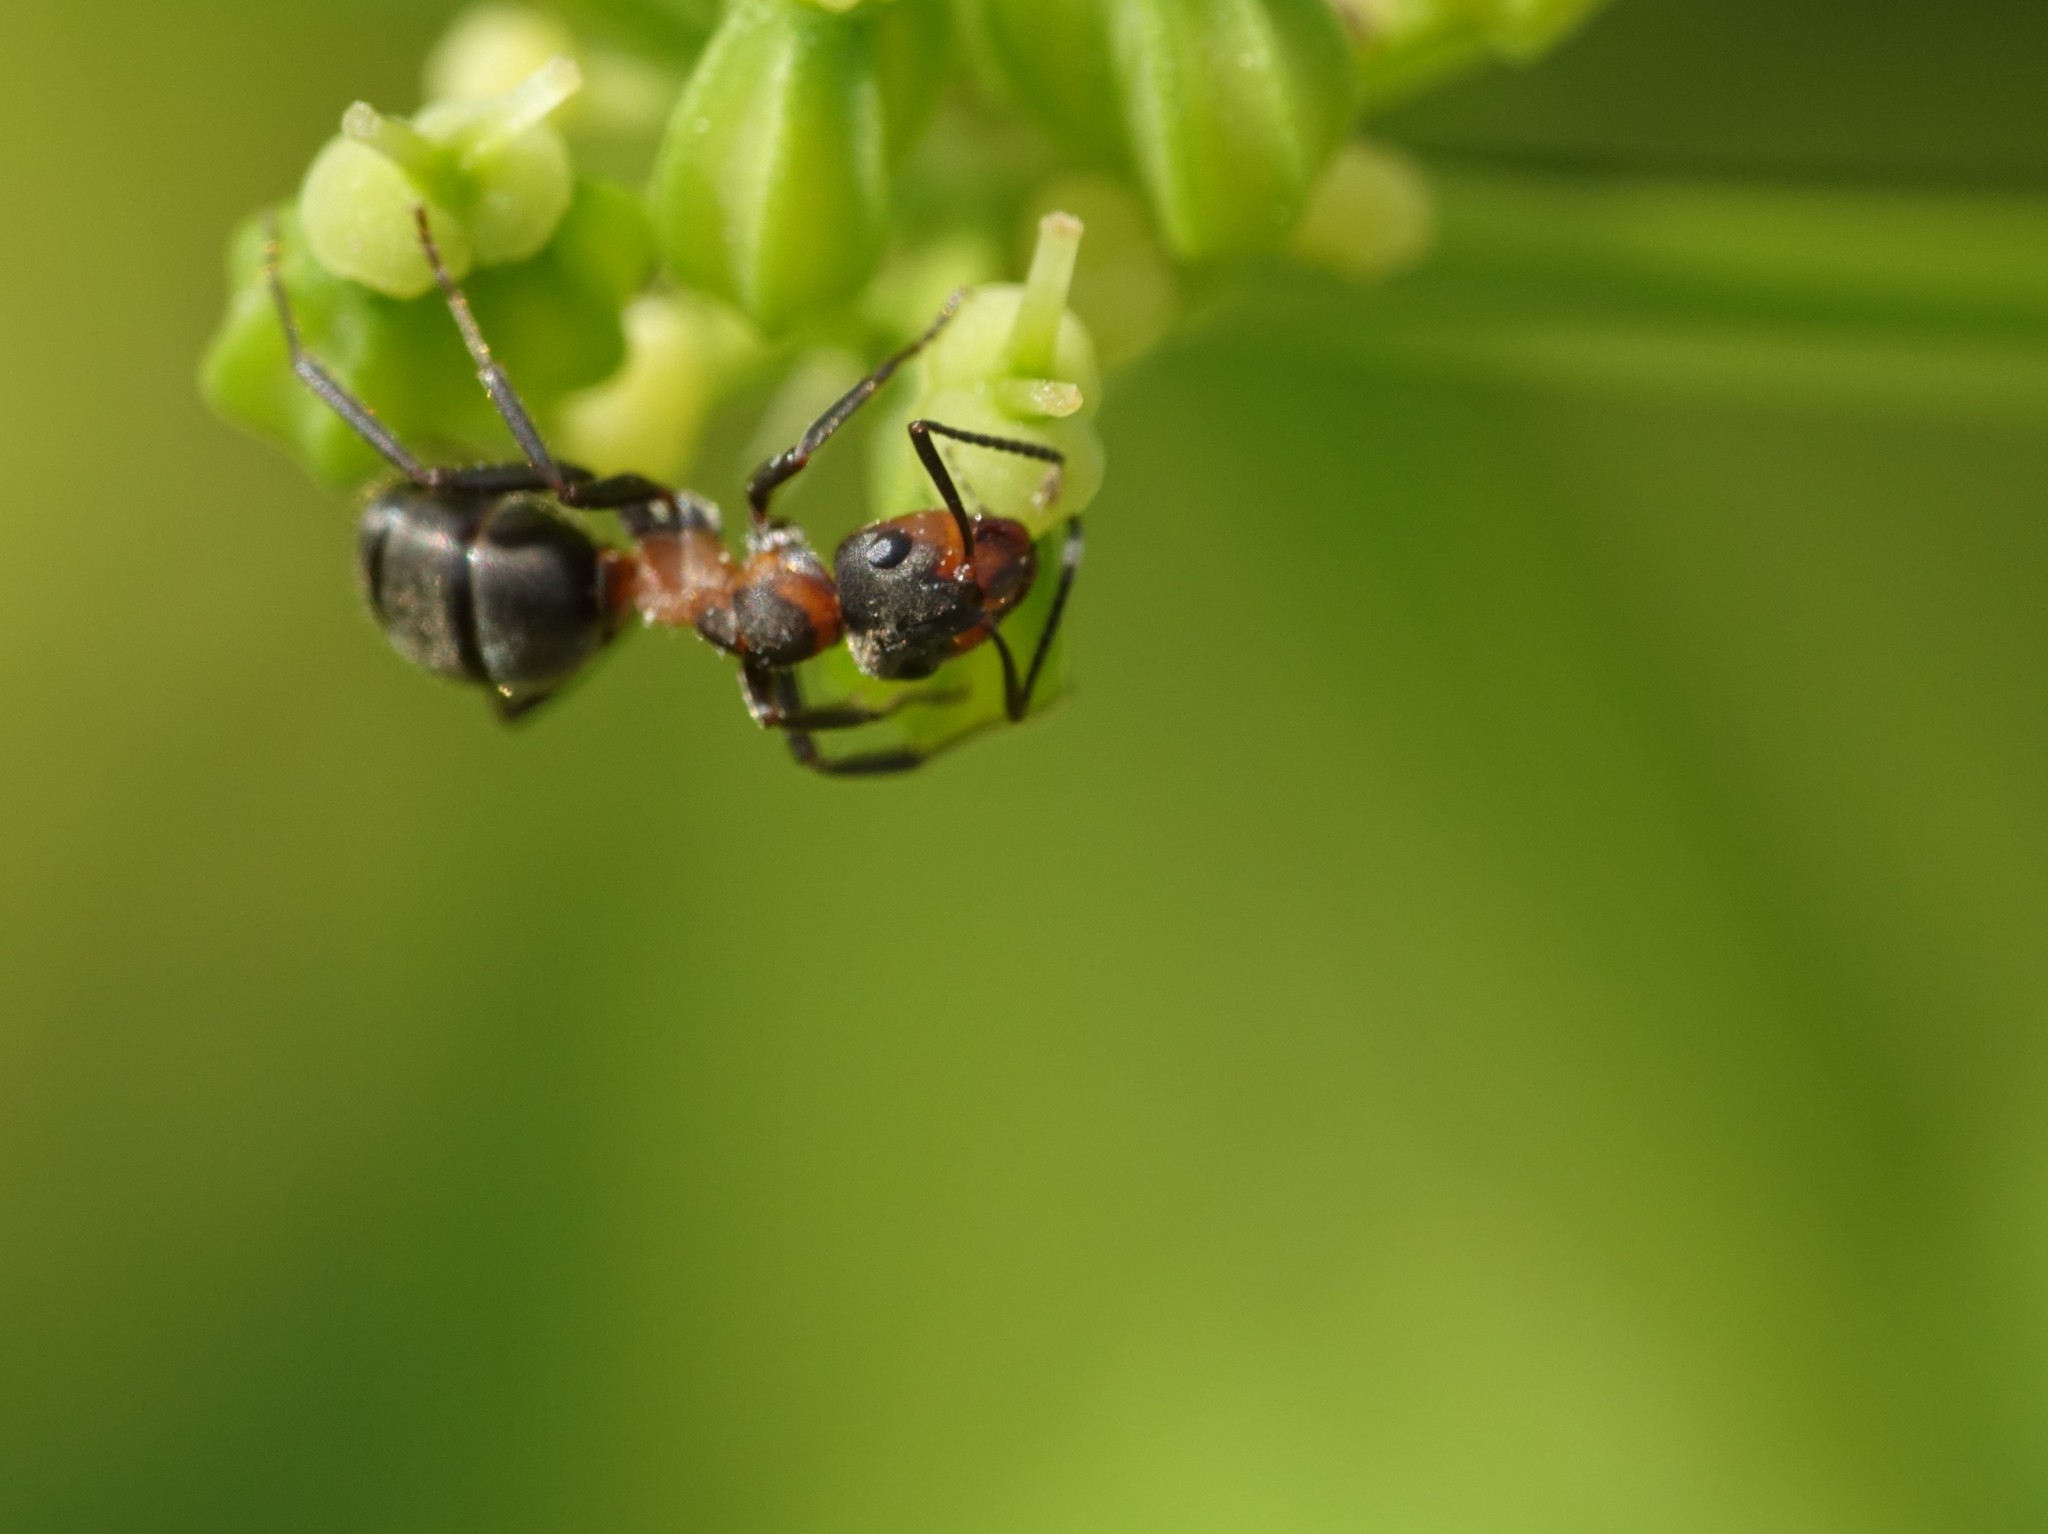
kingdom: Animalia
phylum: Arthropoda
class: Insecta
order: Hymenoptera
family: Formicidae
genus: Formica
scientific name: Formica pratensis
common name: European red wood ant
